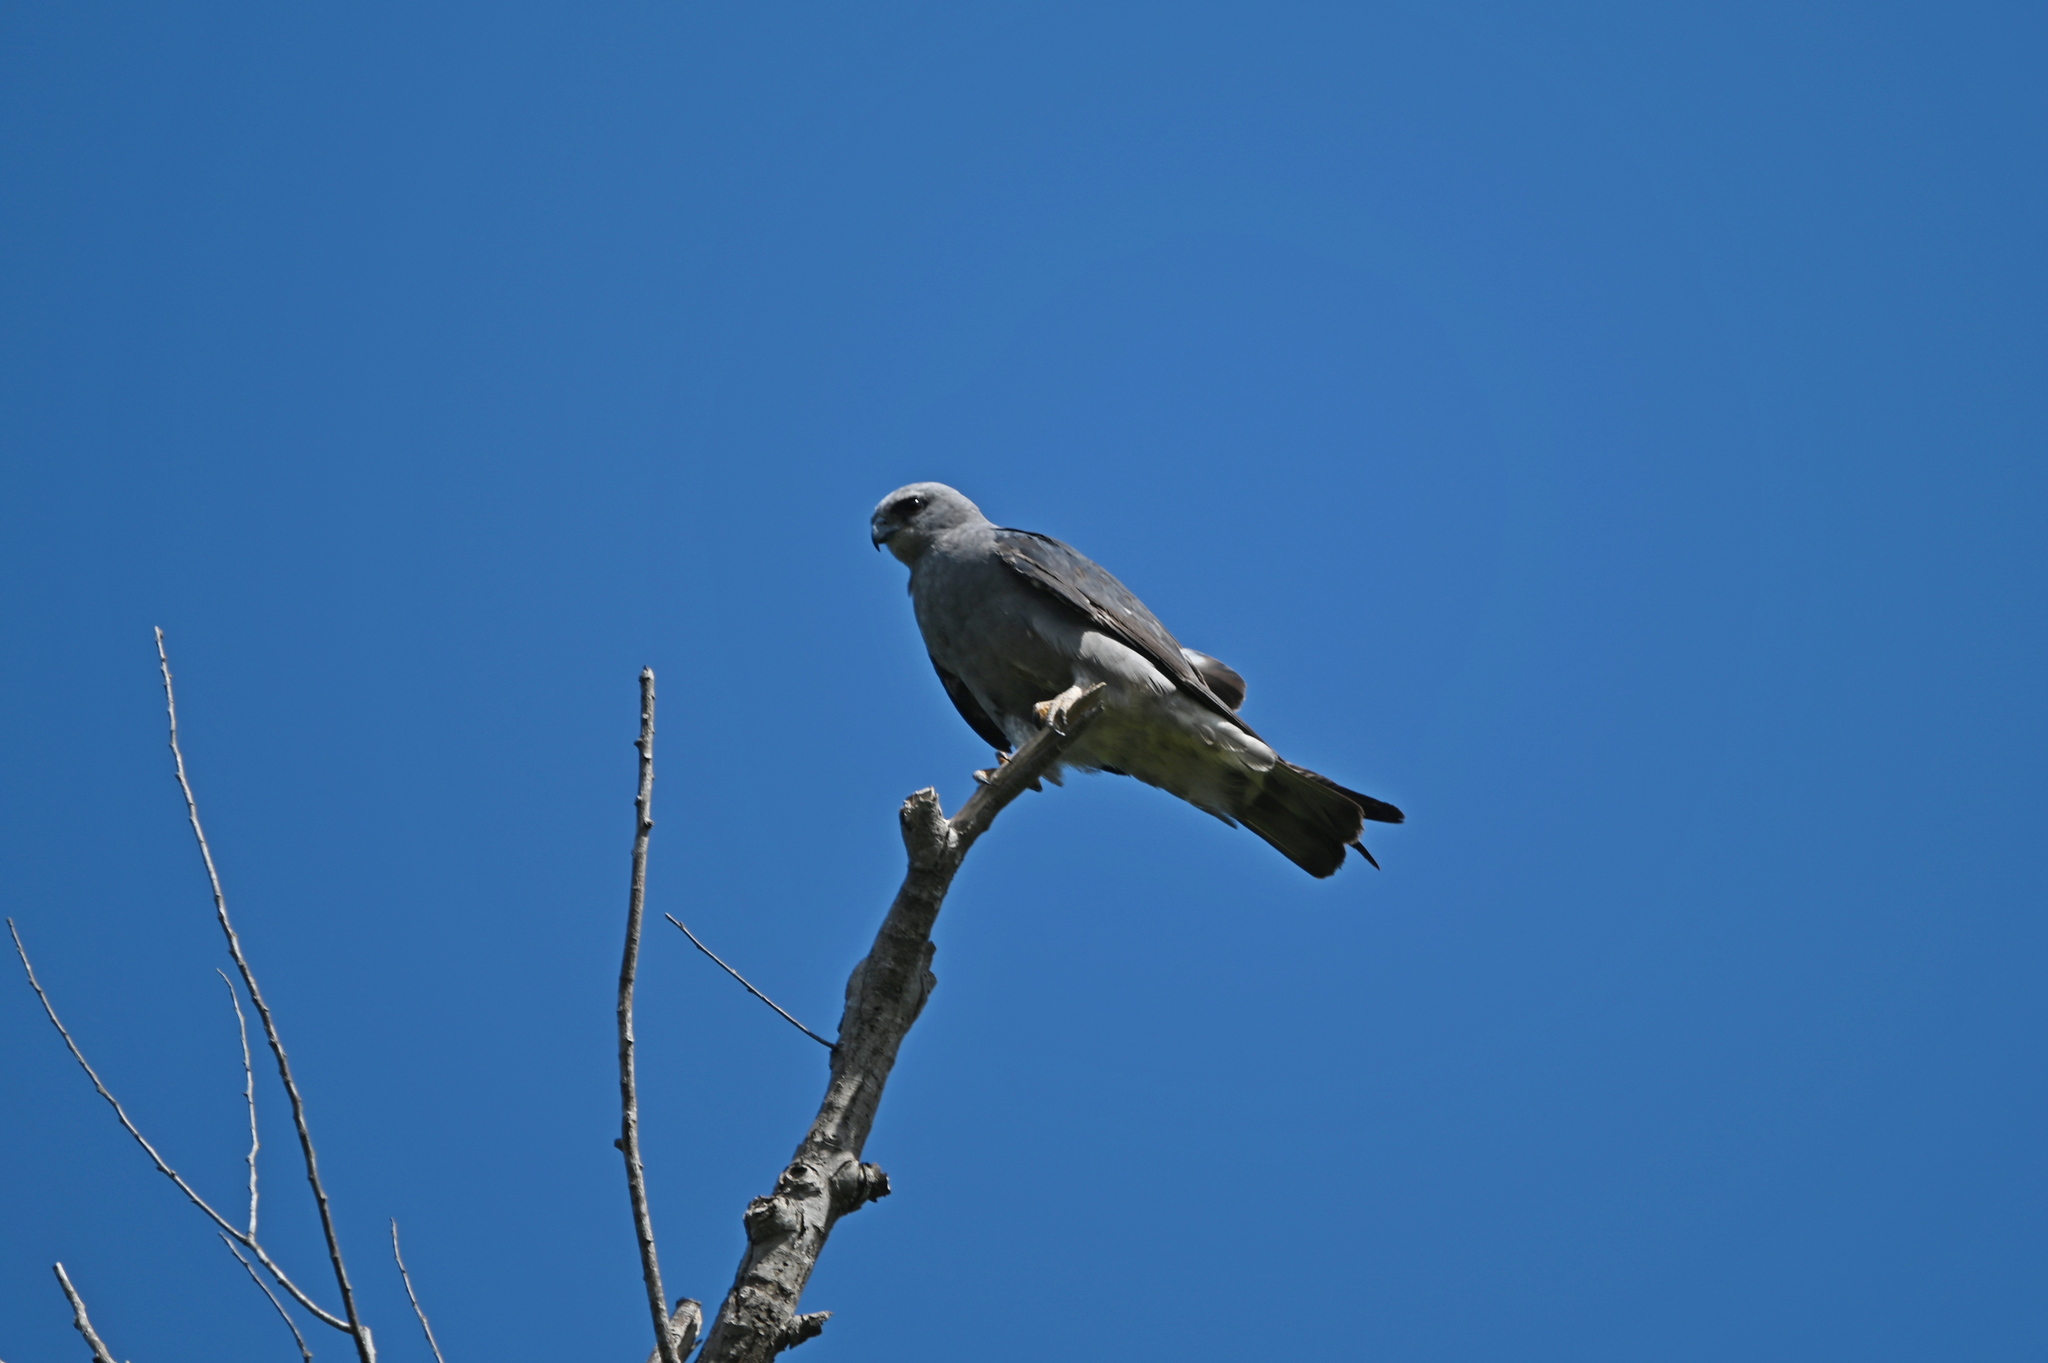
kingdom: Animalia
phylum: Chordata
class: Aves
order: Accipitriformes
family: Accipitridae
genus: Ictinia
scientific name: Ictinia mississippiensis
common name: Mississippi kite
